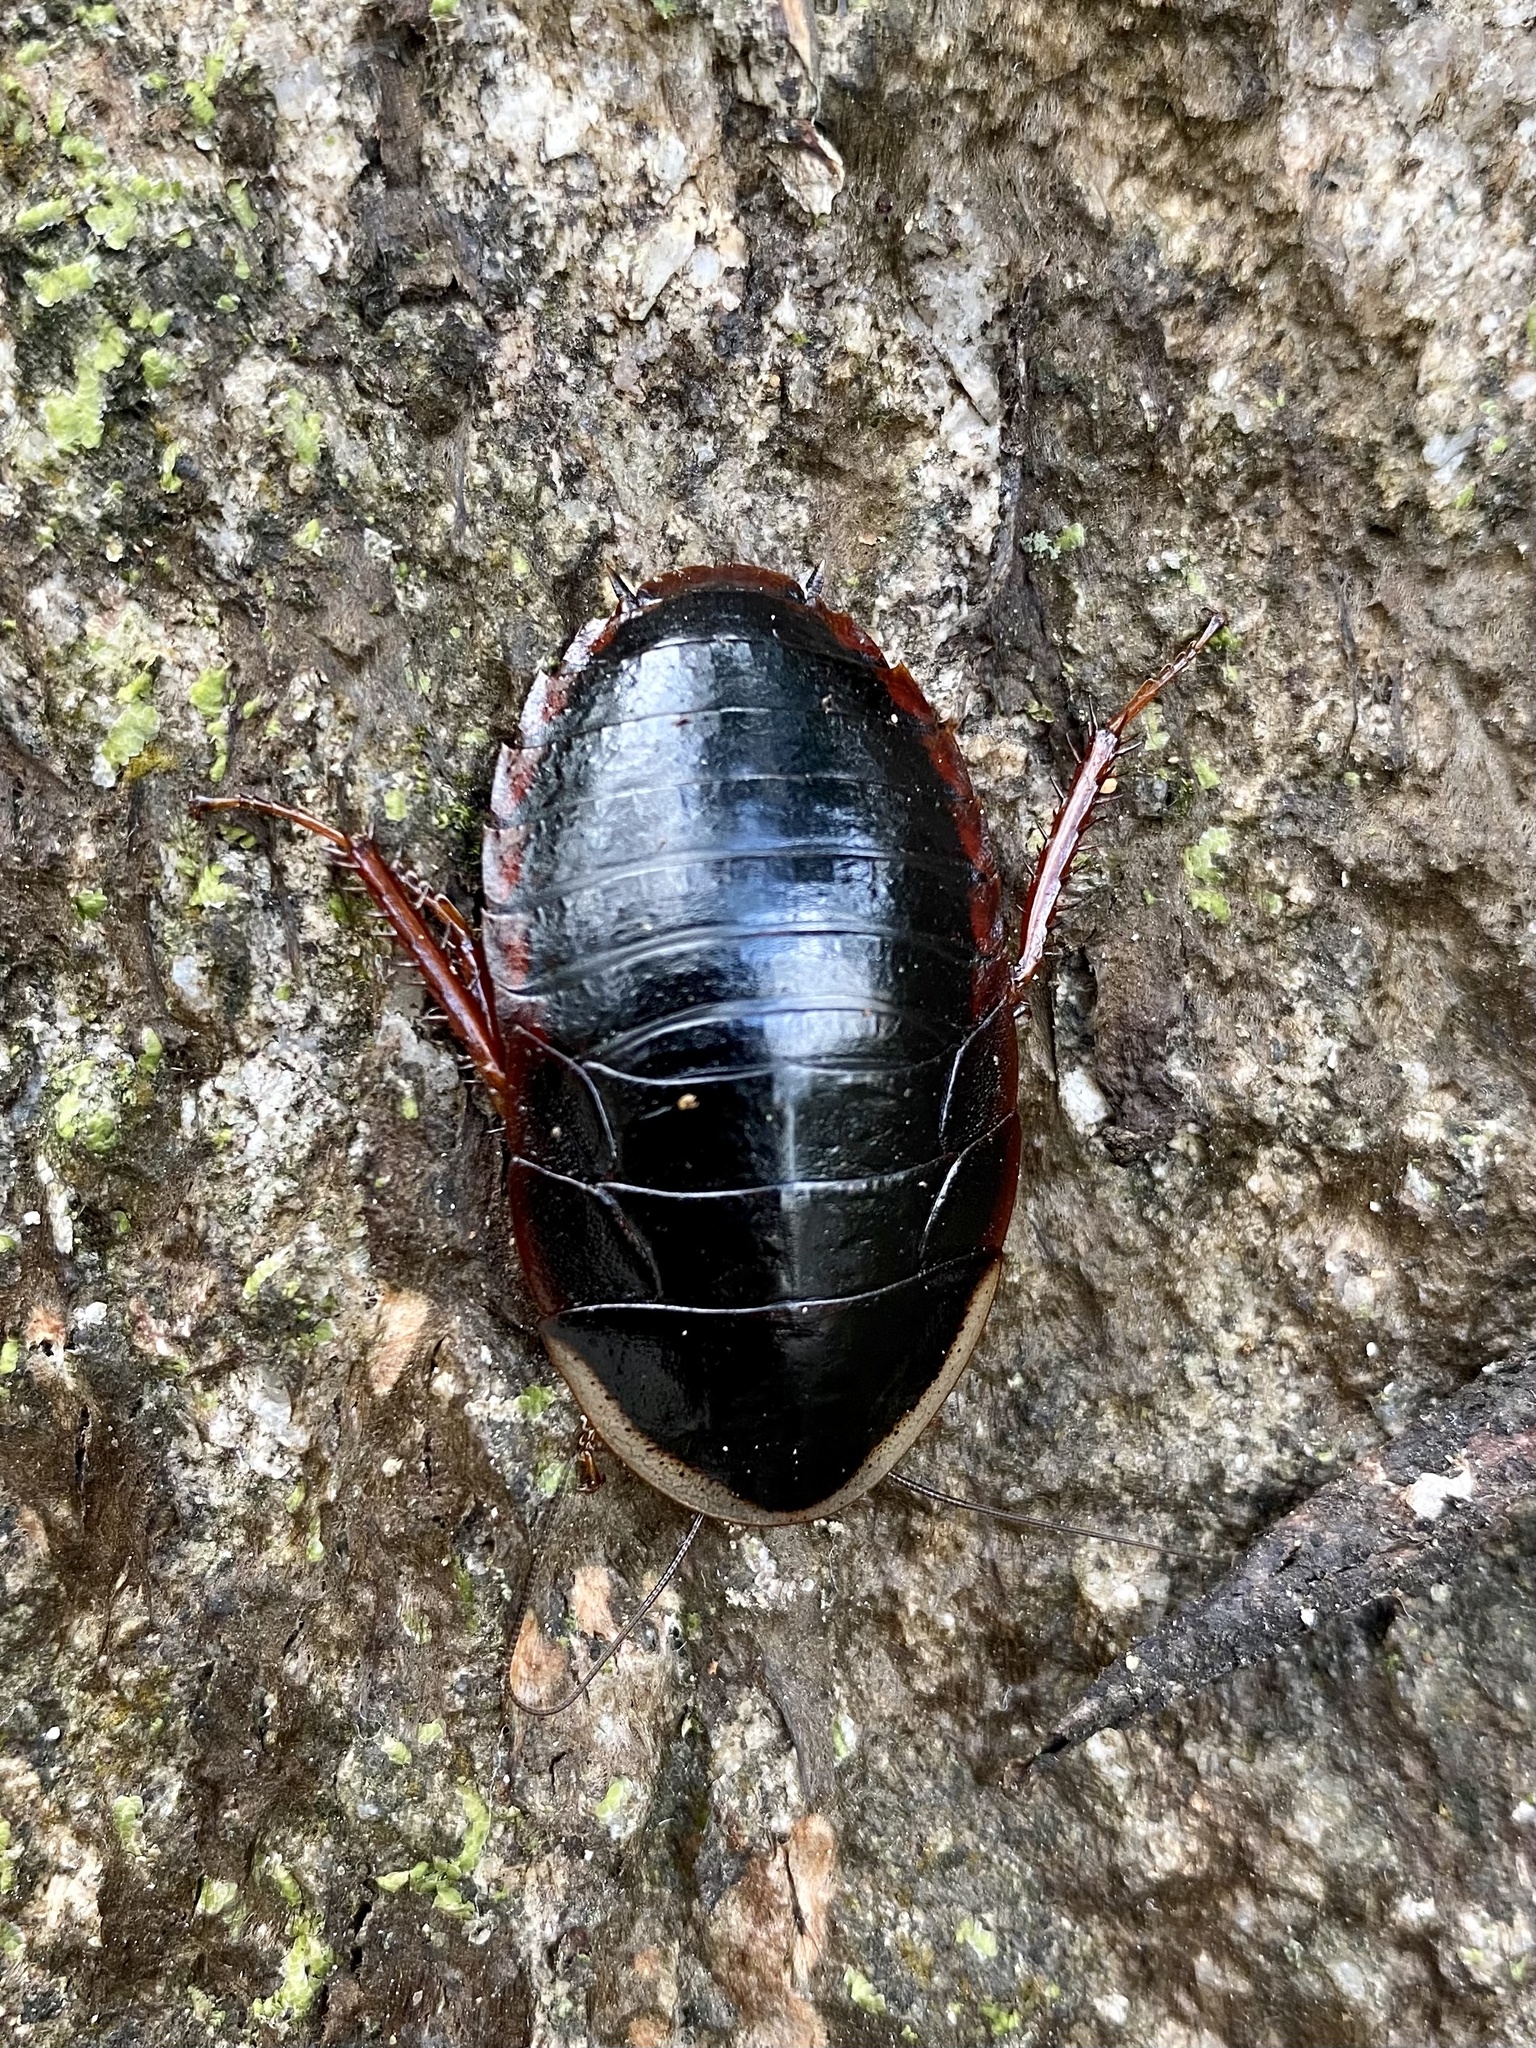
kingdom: Animalia
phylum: Arthropoda
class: Insecta
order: Blattodea
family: Blaberidae
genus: Opisthoplatia
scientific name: Opisthoplatia orientalis
